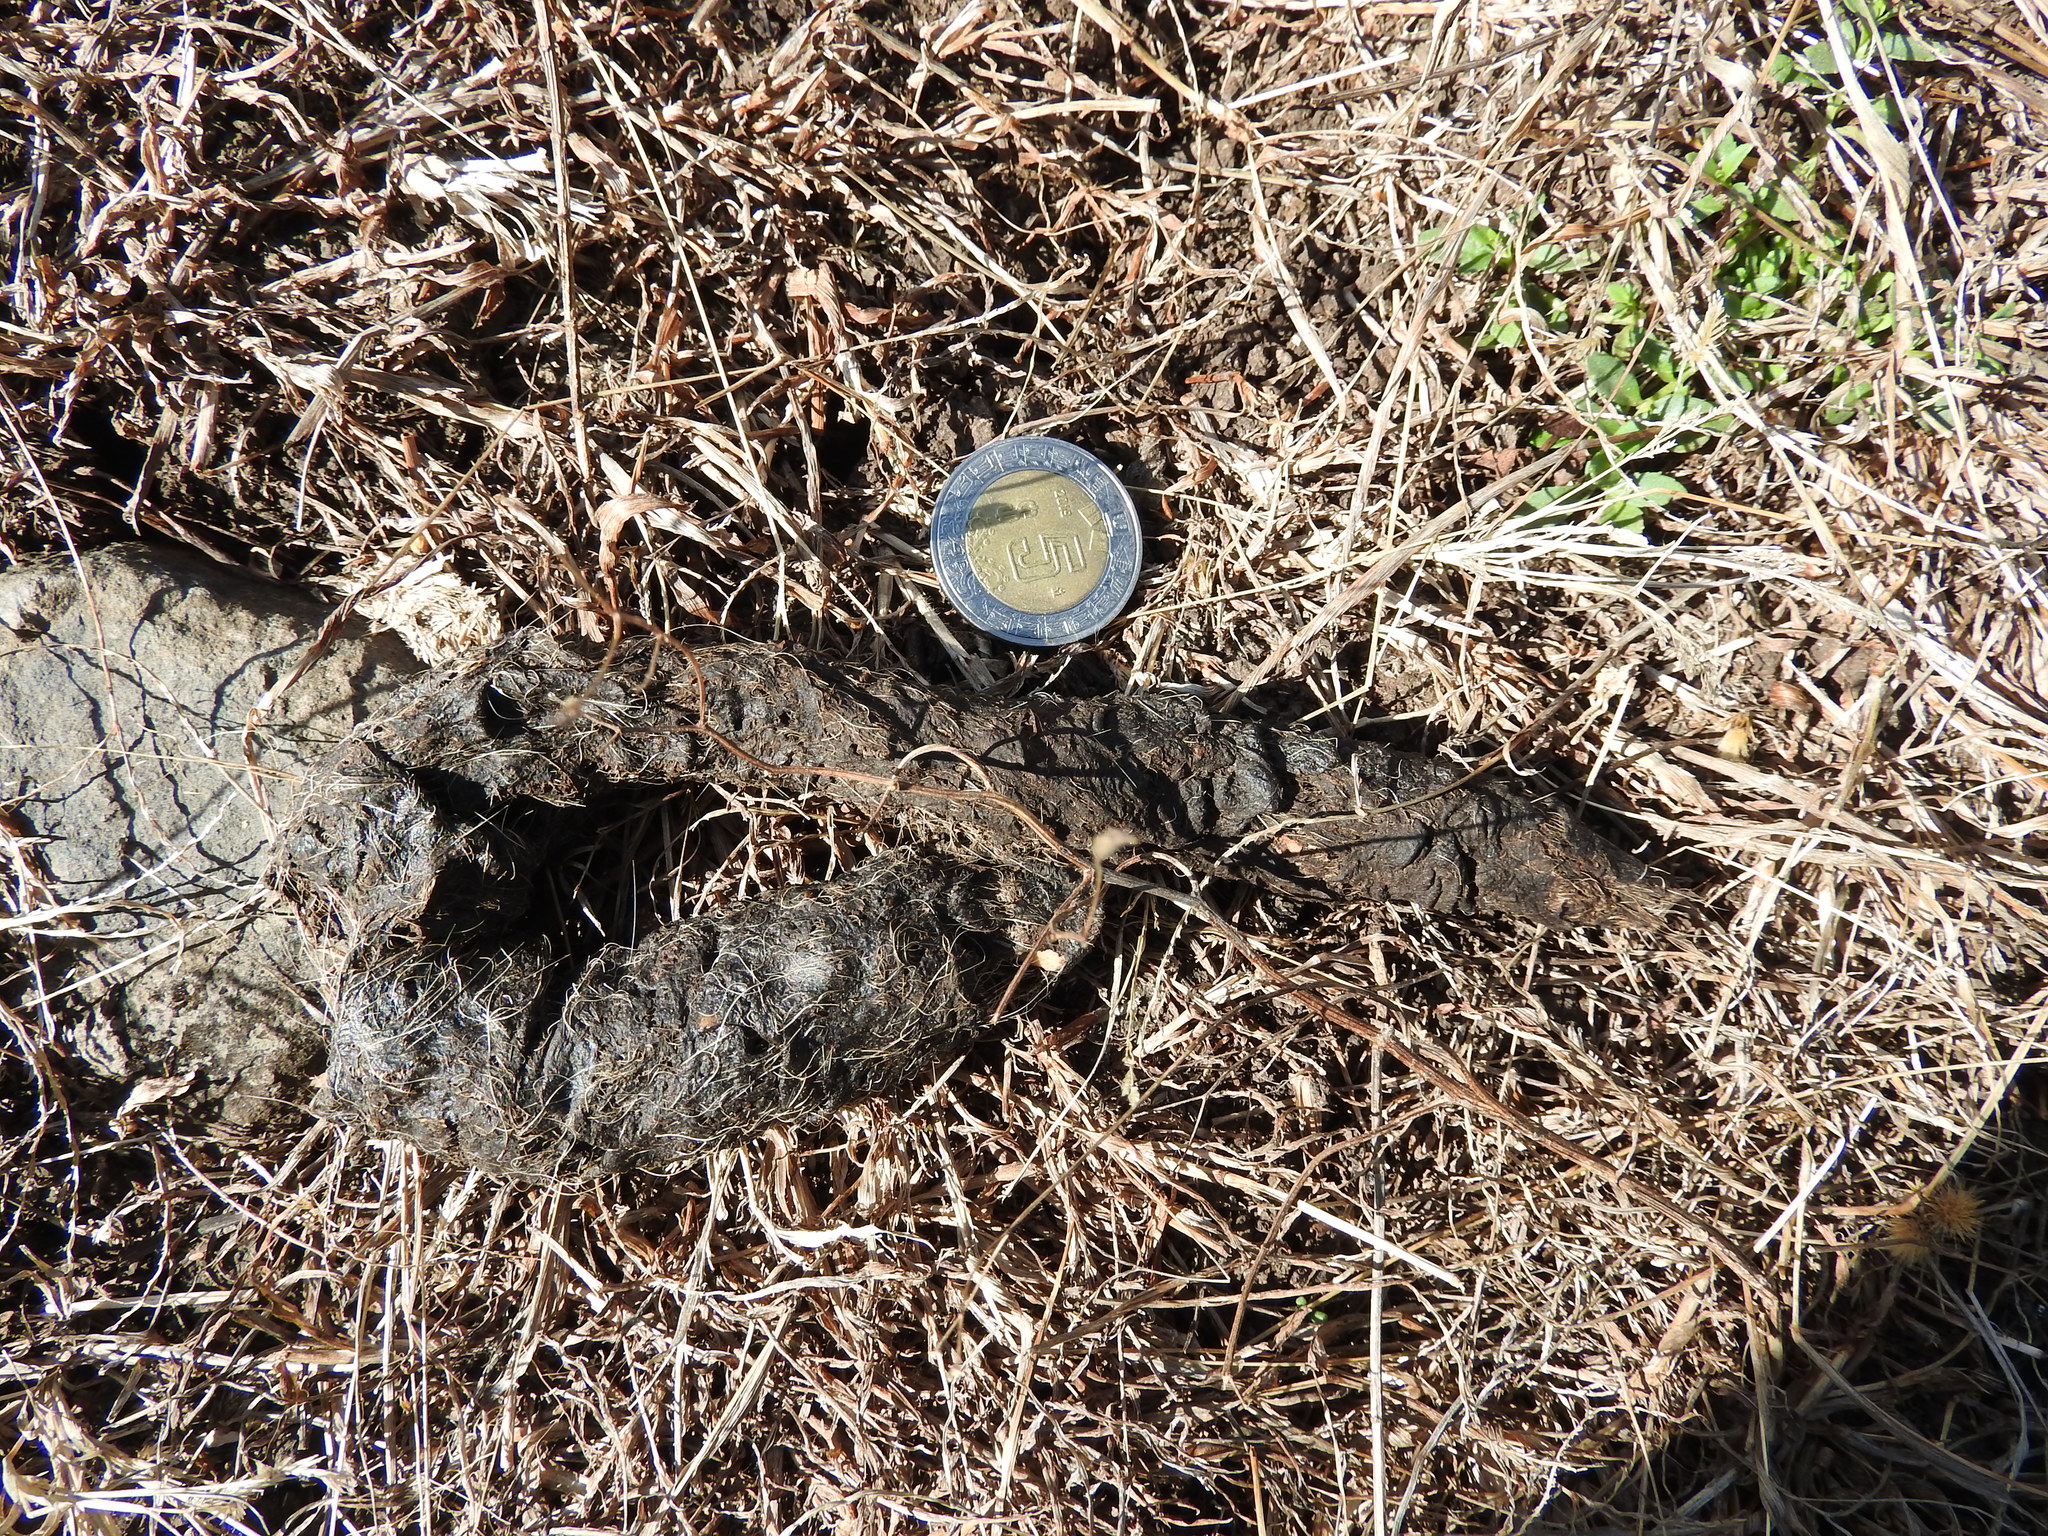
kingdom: Animalia
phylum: Chordata
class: Mammalia
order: Carnivora
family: Canidae
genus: Canis
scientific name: Canis latrans
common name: Coyote
